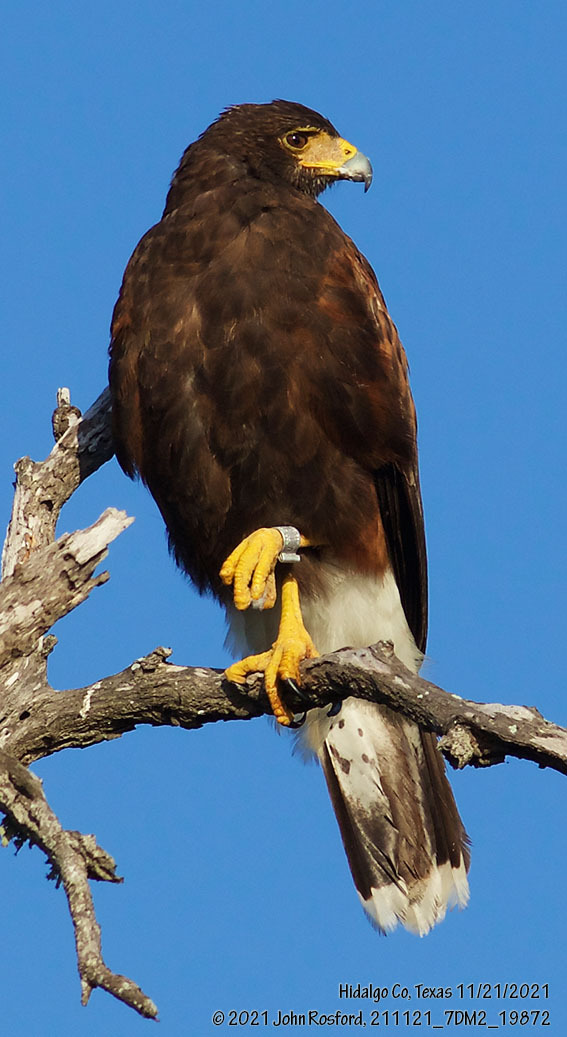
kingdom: Animalia
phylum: Chordata
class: Aves
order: Accipitriformes
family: Accipitridae
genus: Parabuteo
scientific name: Parabuteo unicinctus
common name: Harris's hawk
